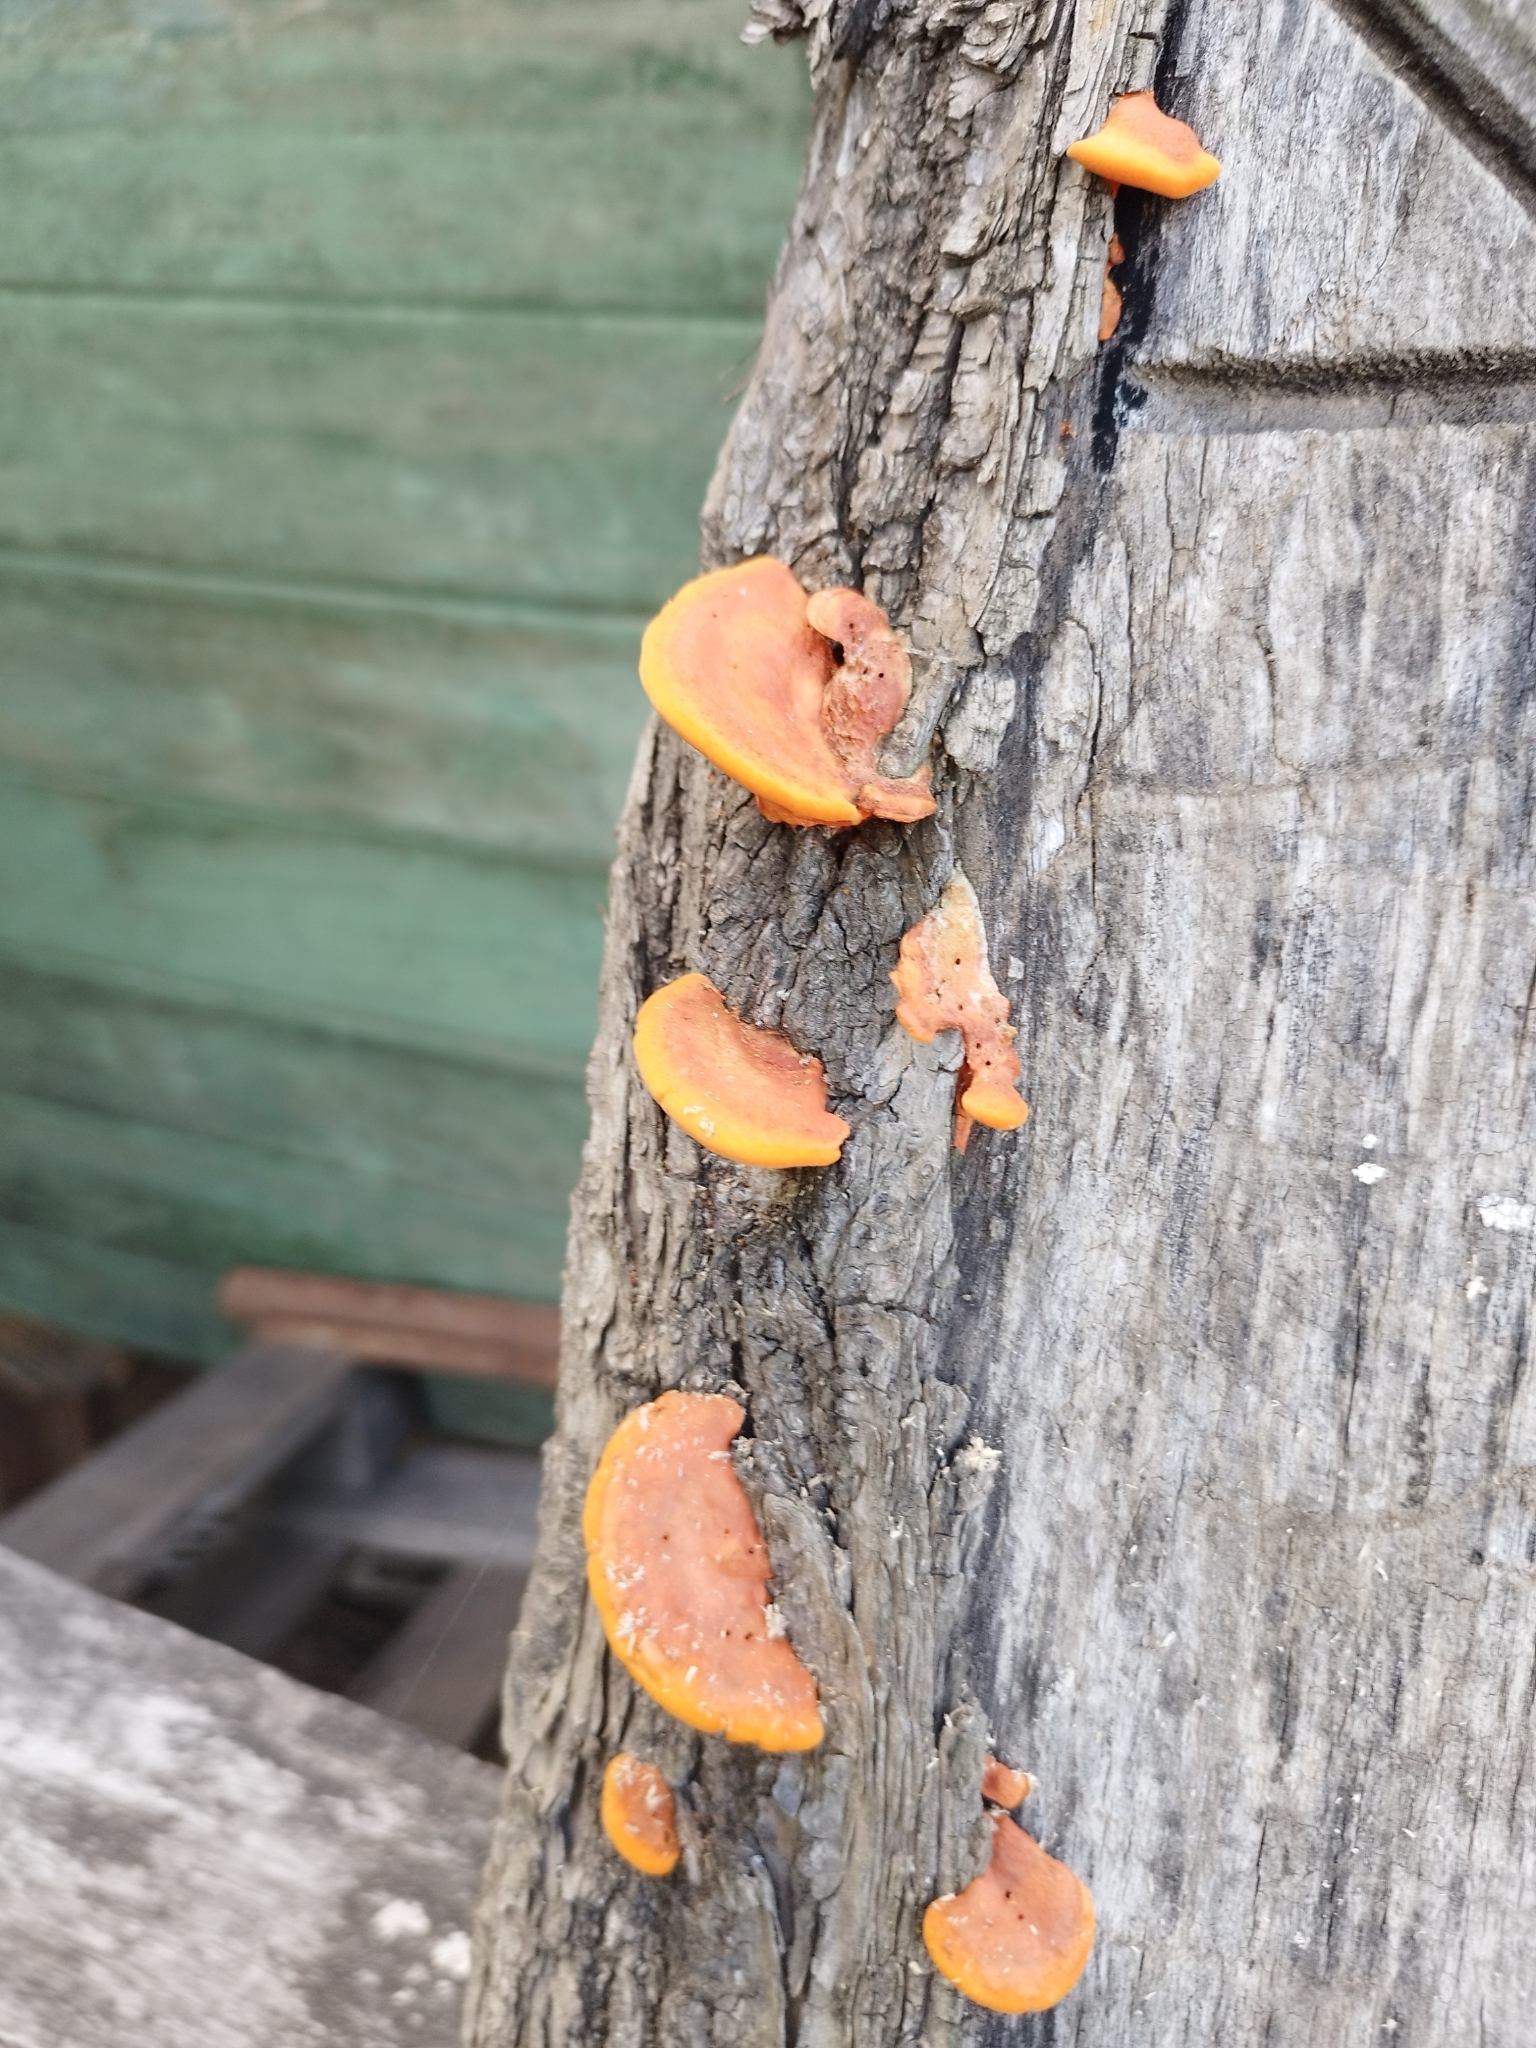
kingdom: Fungi
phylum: Basidiomycota
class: Agaricomycetes
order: Polyporales
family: Polyporaceae
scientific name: Polyporaceae
